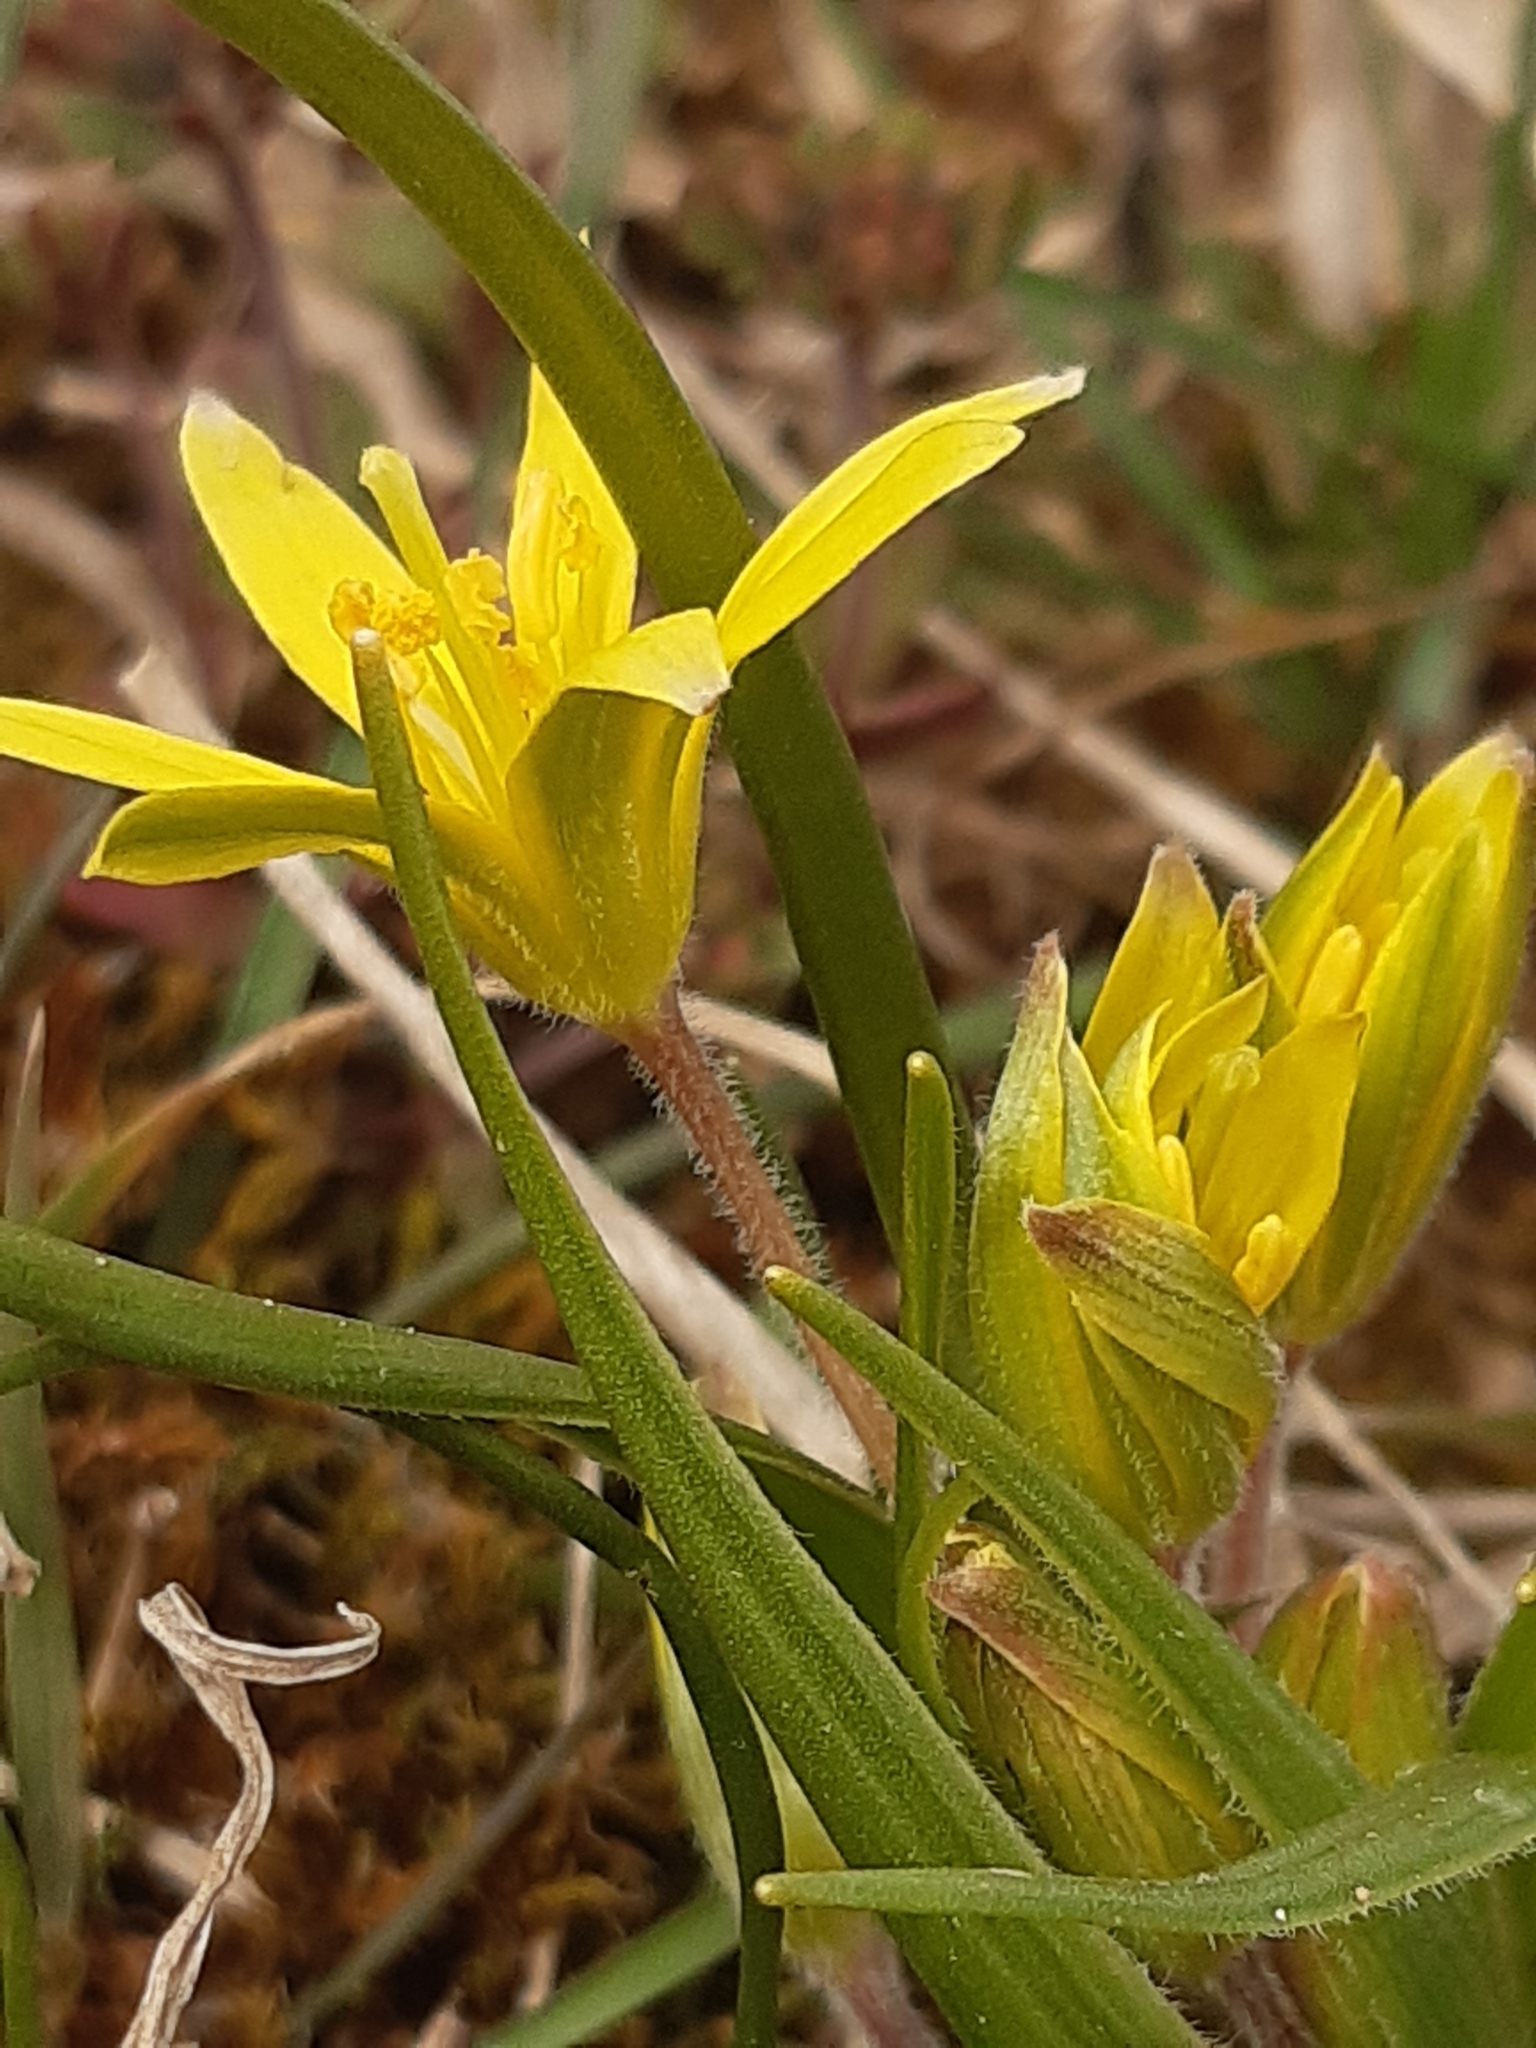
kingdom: Plantae
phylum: Tracheophyta
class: Liliopsida
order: Liliales
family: Liliaceae
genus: Gagea
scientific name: Gagea villosa
